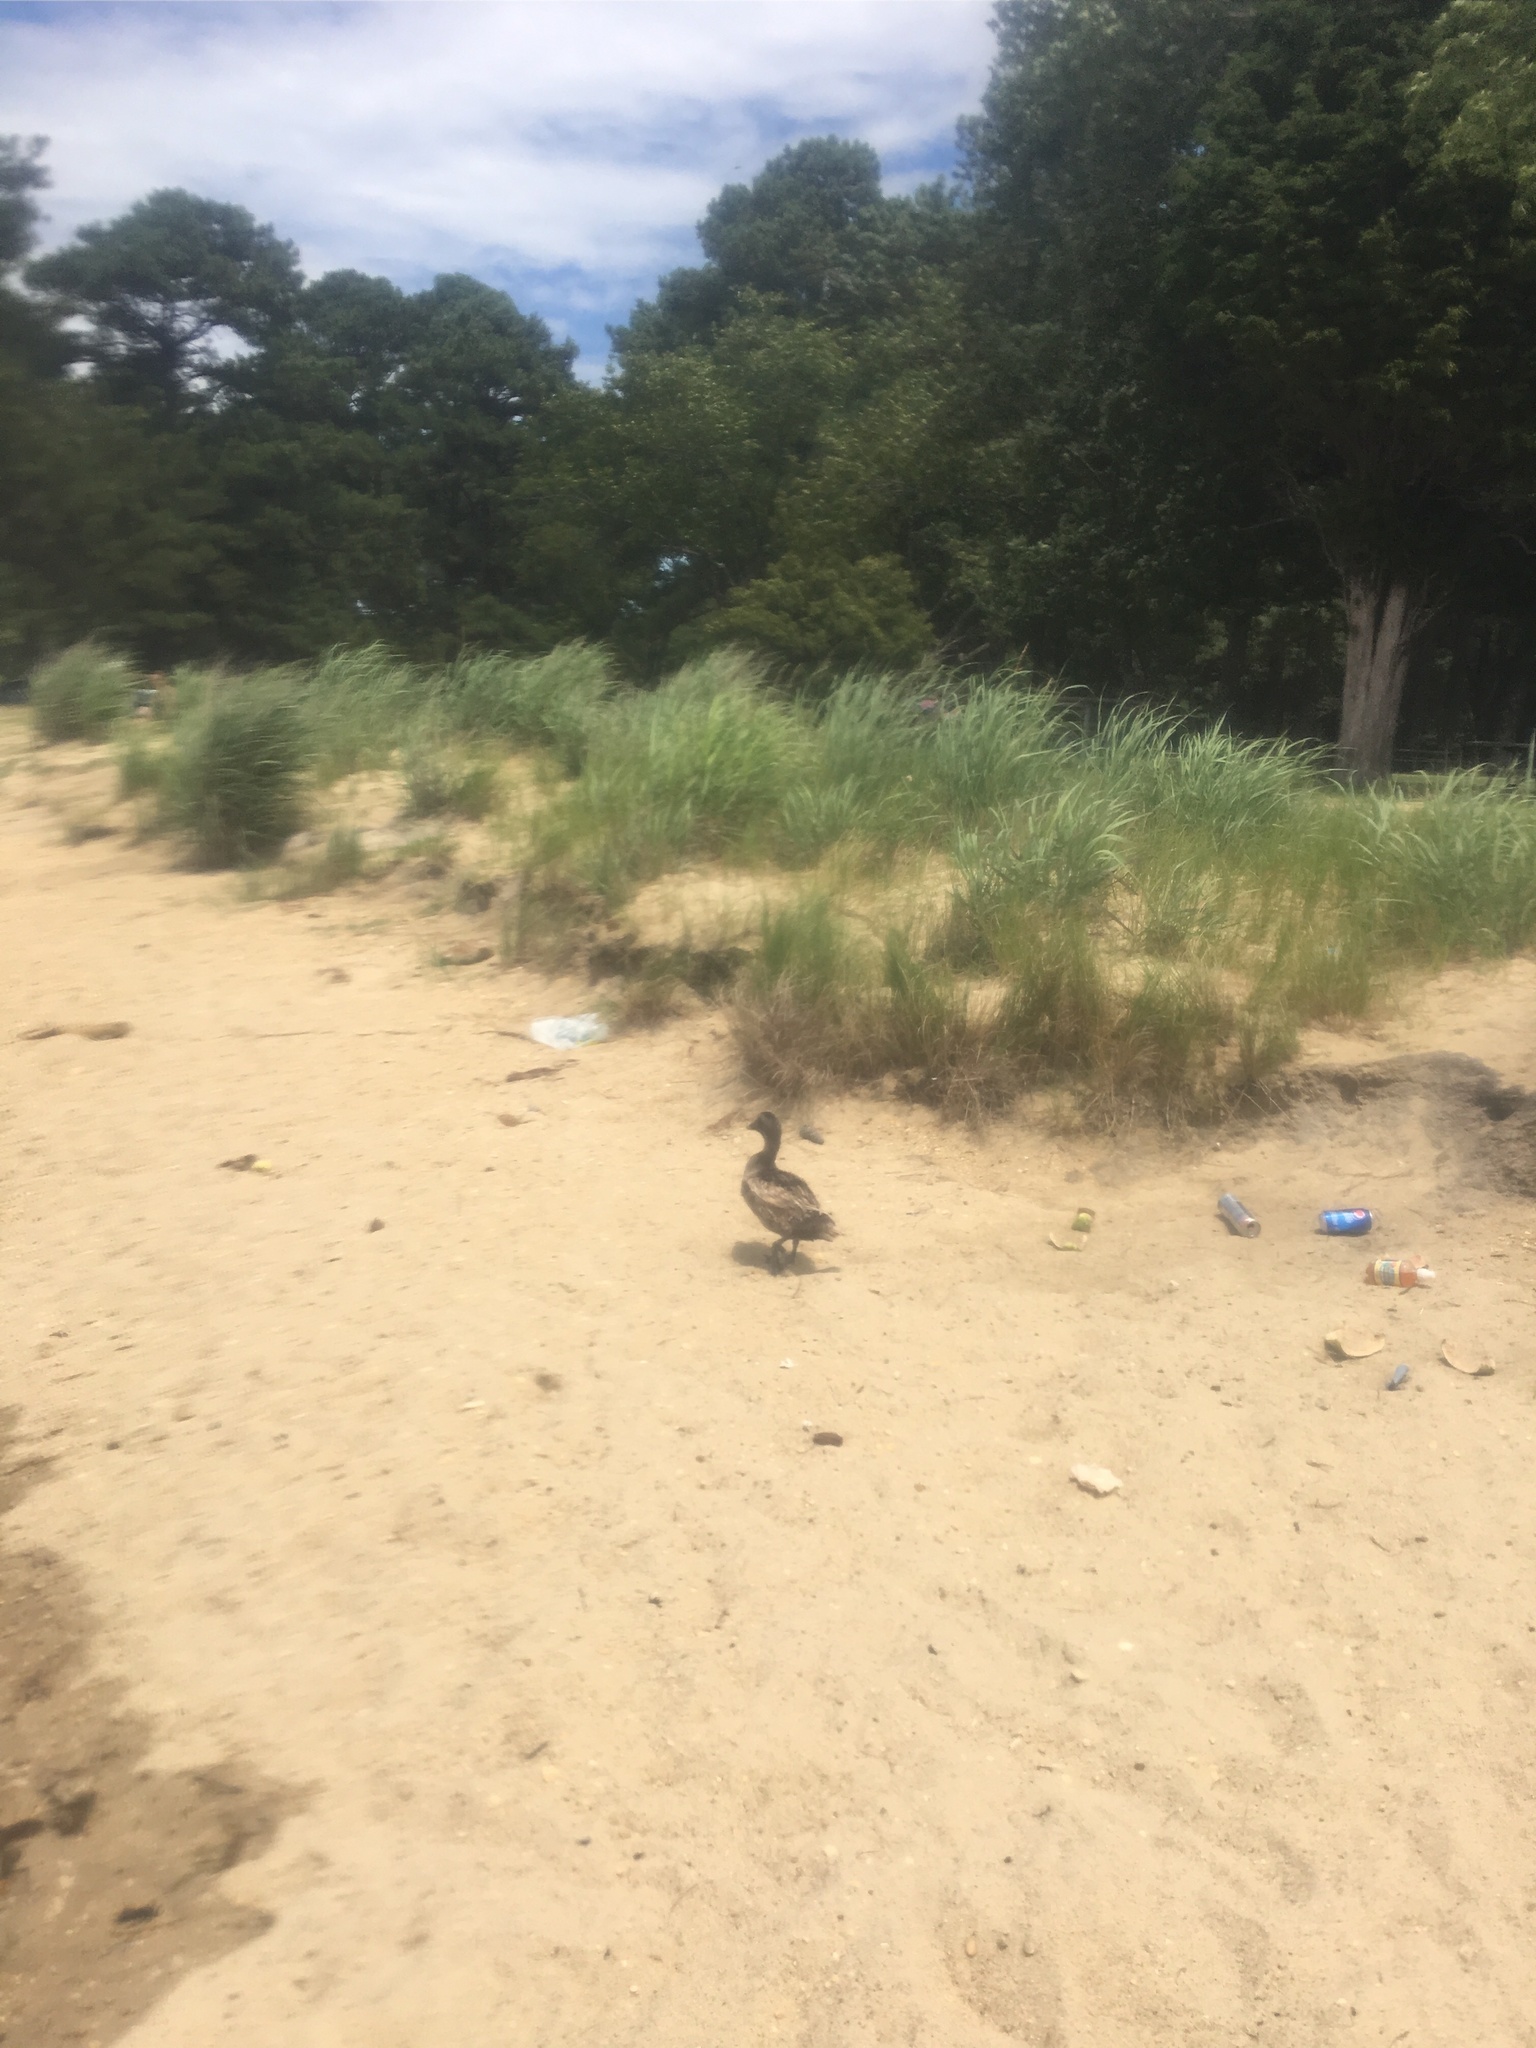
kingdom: Animalia
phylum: Chordata
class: Aves
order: Anseriformes
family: Anatidae
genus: Somateria
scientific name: Somateria mollissima
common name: Common eider
